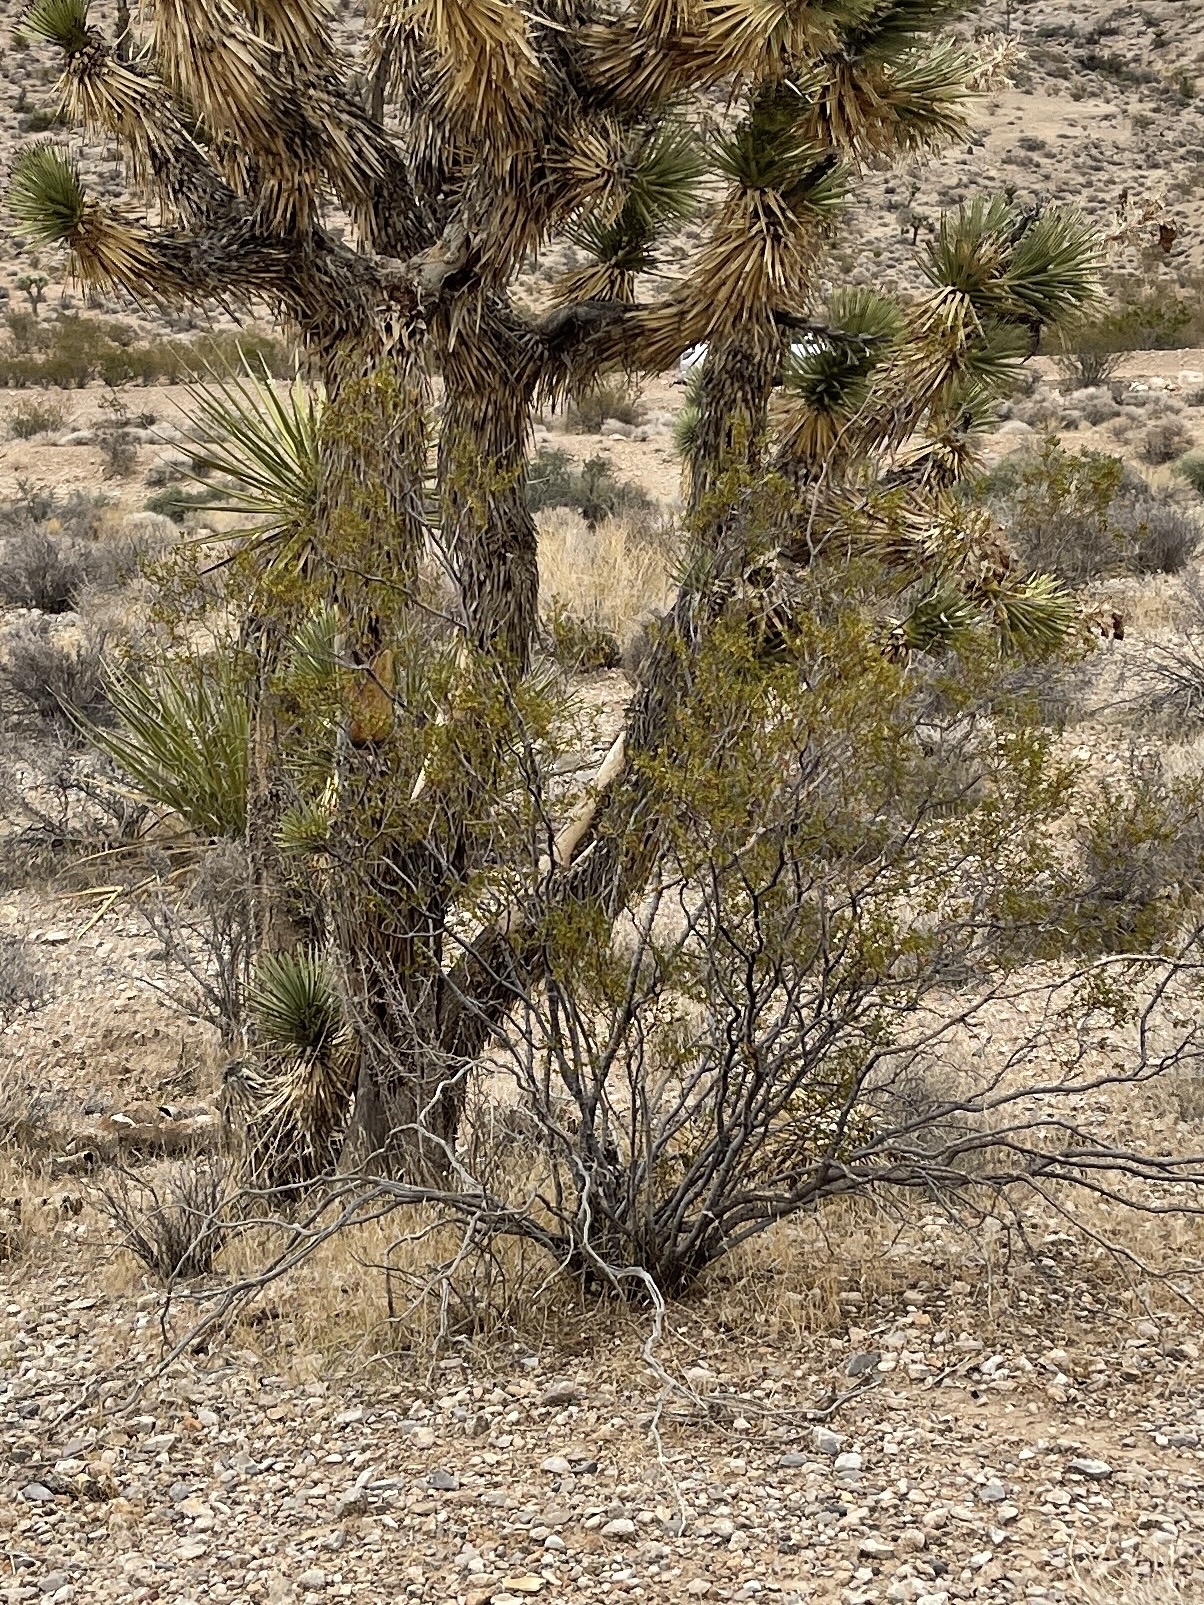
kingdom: Plantae
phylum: Tracheophyta
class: Magnoliopsida
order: Zygophyllales
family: Zygophyllaceae
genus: Larrea
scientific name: Larrea tridentata
